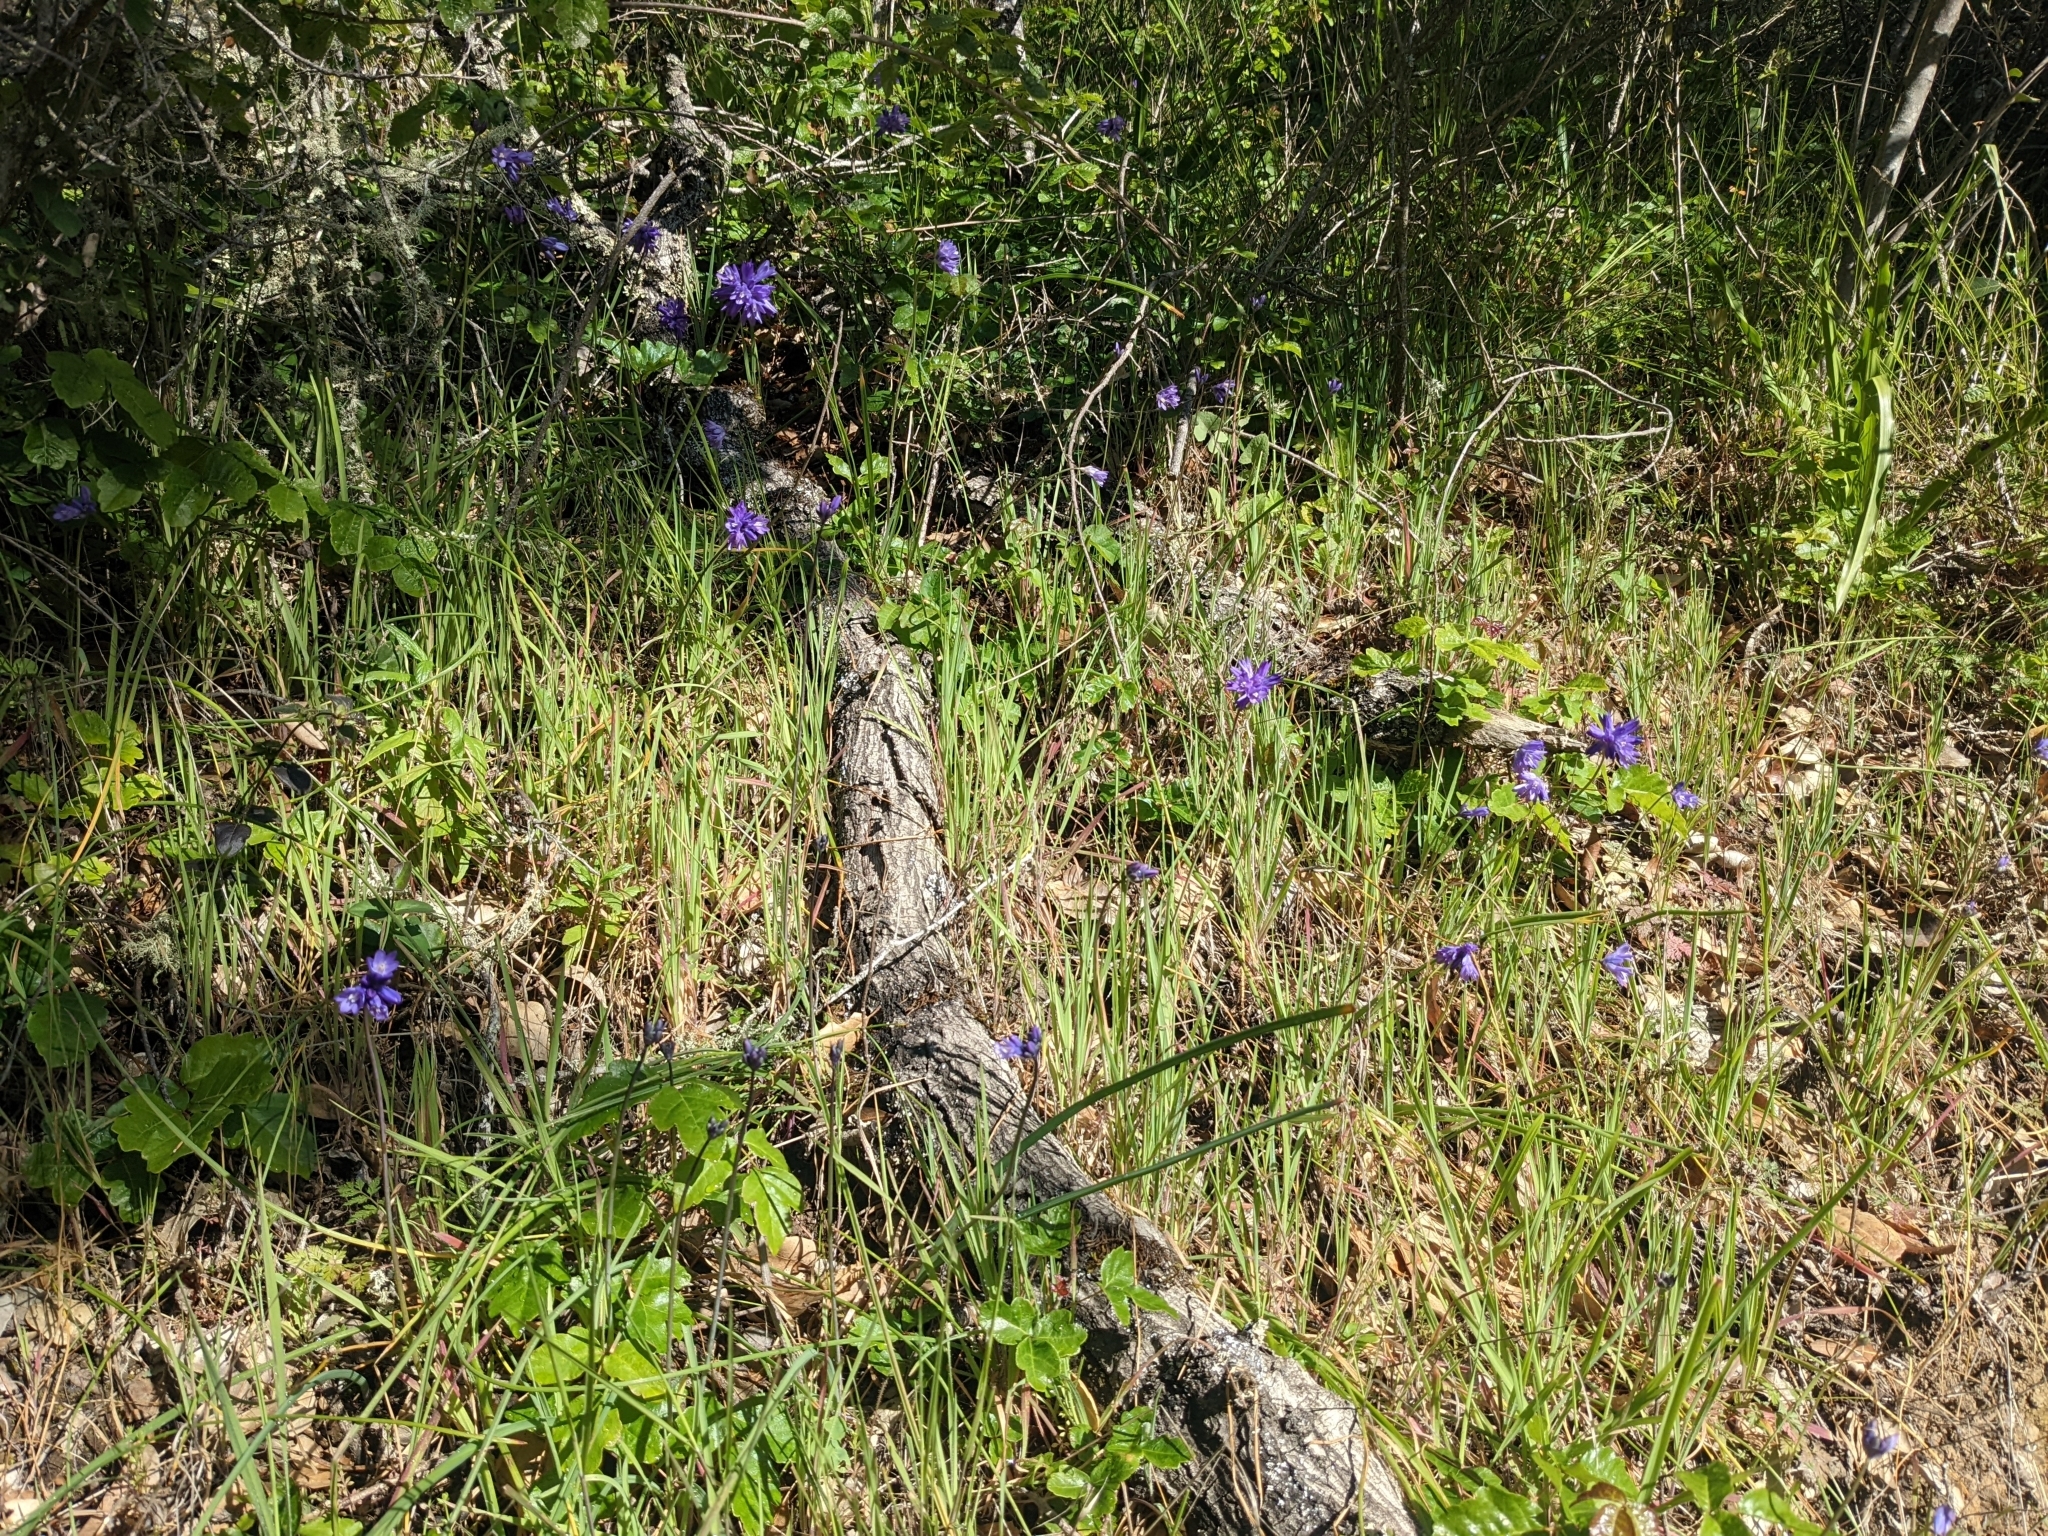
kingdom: Plantae
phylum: Tracheophyta
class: Liliopsida
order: Asparagales
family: Asparagaceae
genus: Dipterostemon
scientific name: Dipterostemon capitatus
